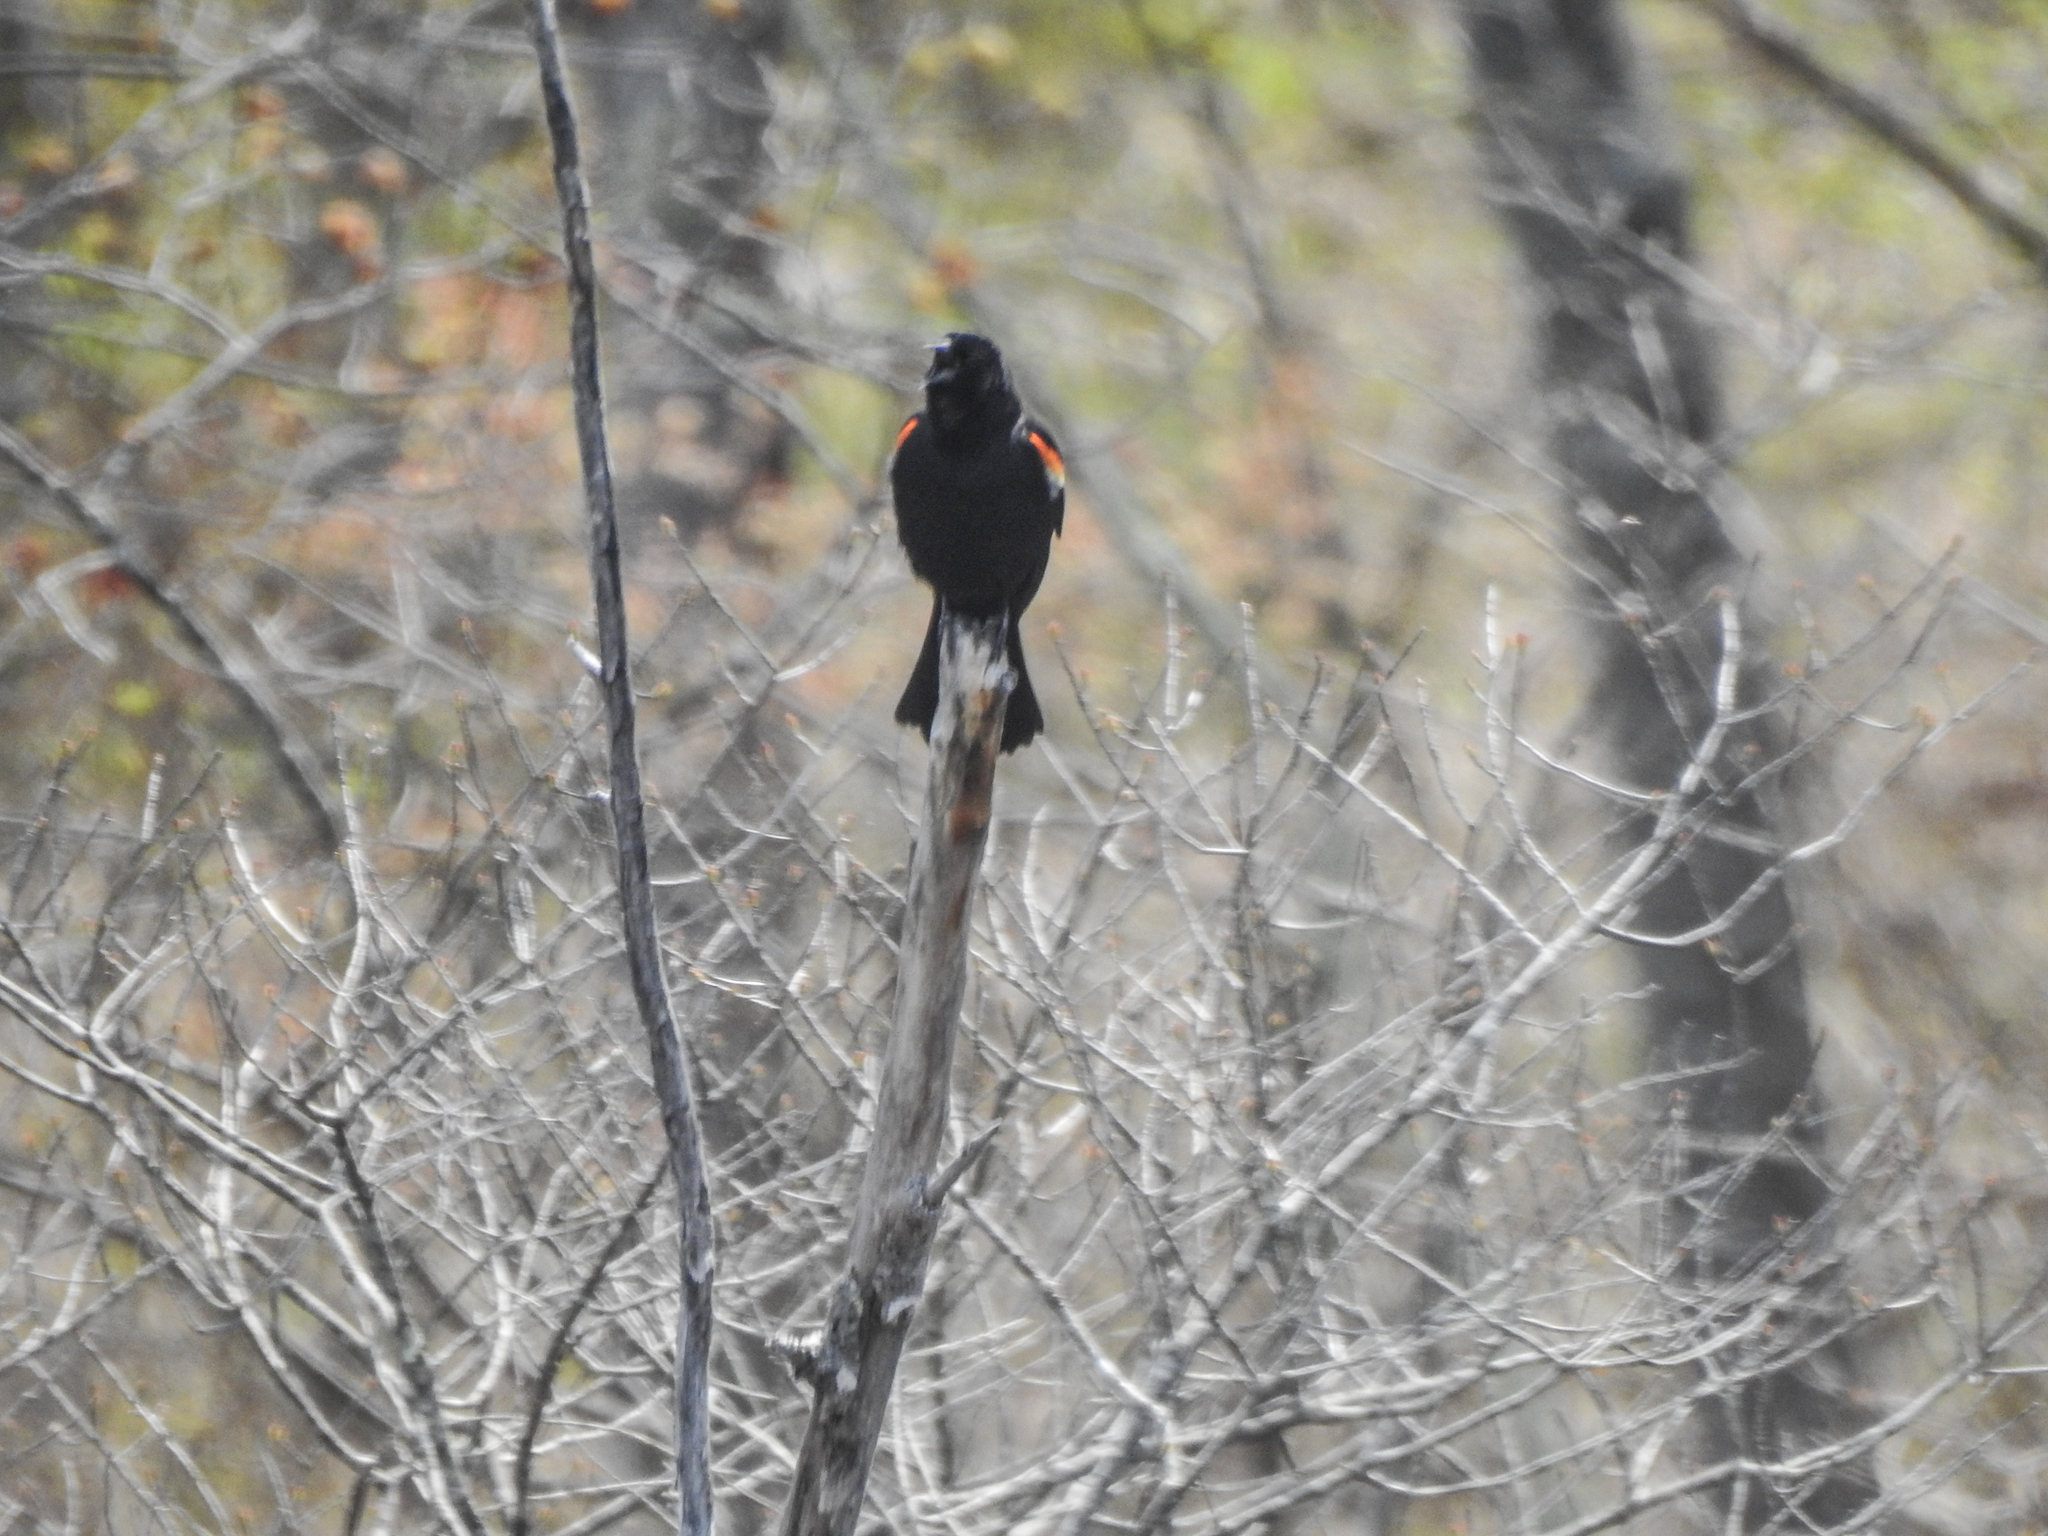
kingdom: Animalia
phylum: Chordata
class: Aves
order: Passeriformes
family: Icteridae
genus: Agelaius
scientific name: Agelaius phoeniceus
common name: Red-winged blackbird
